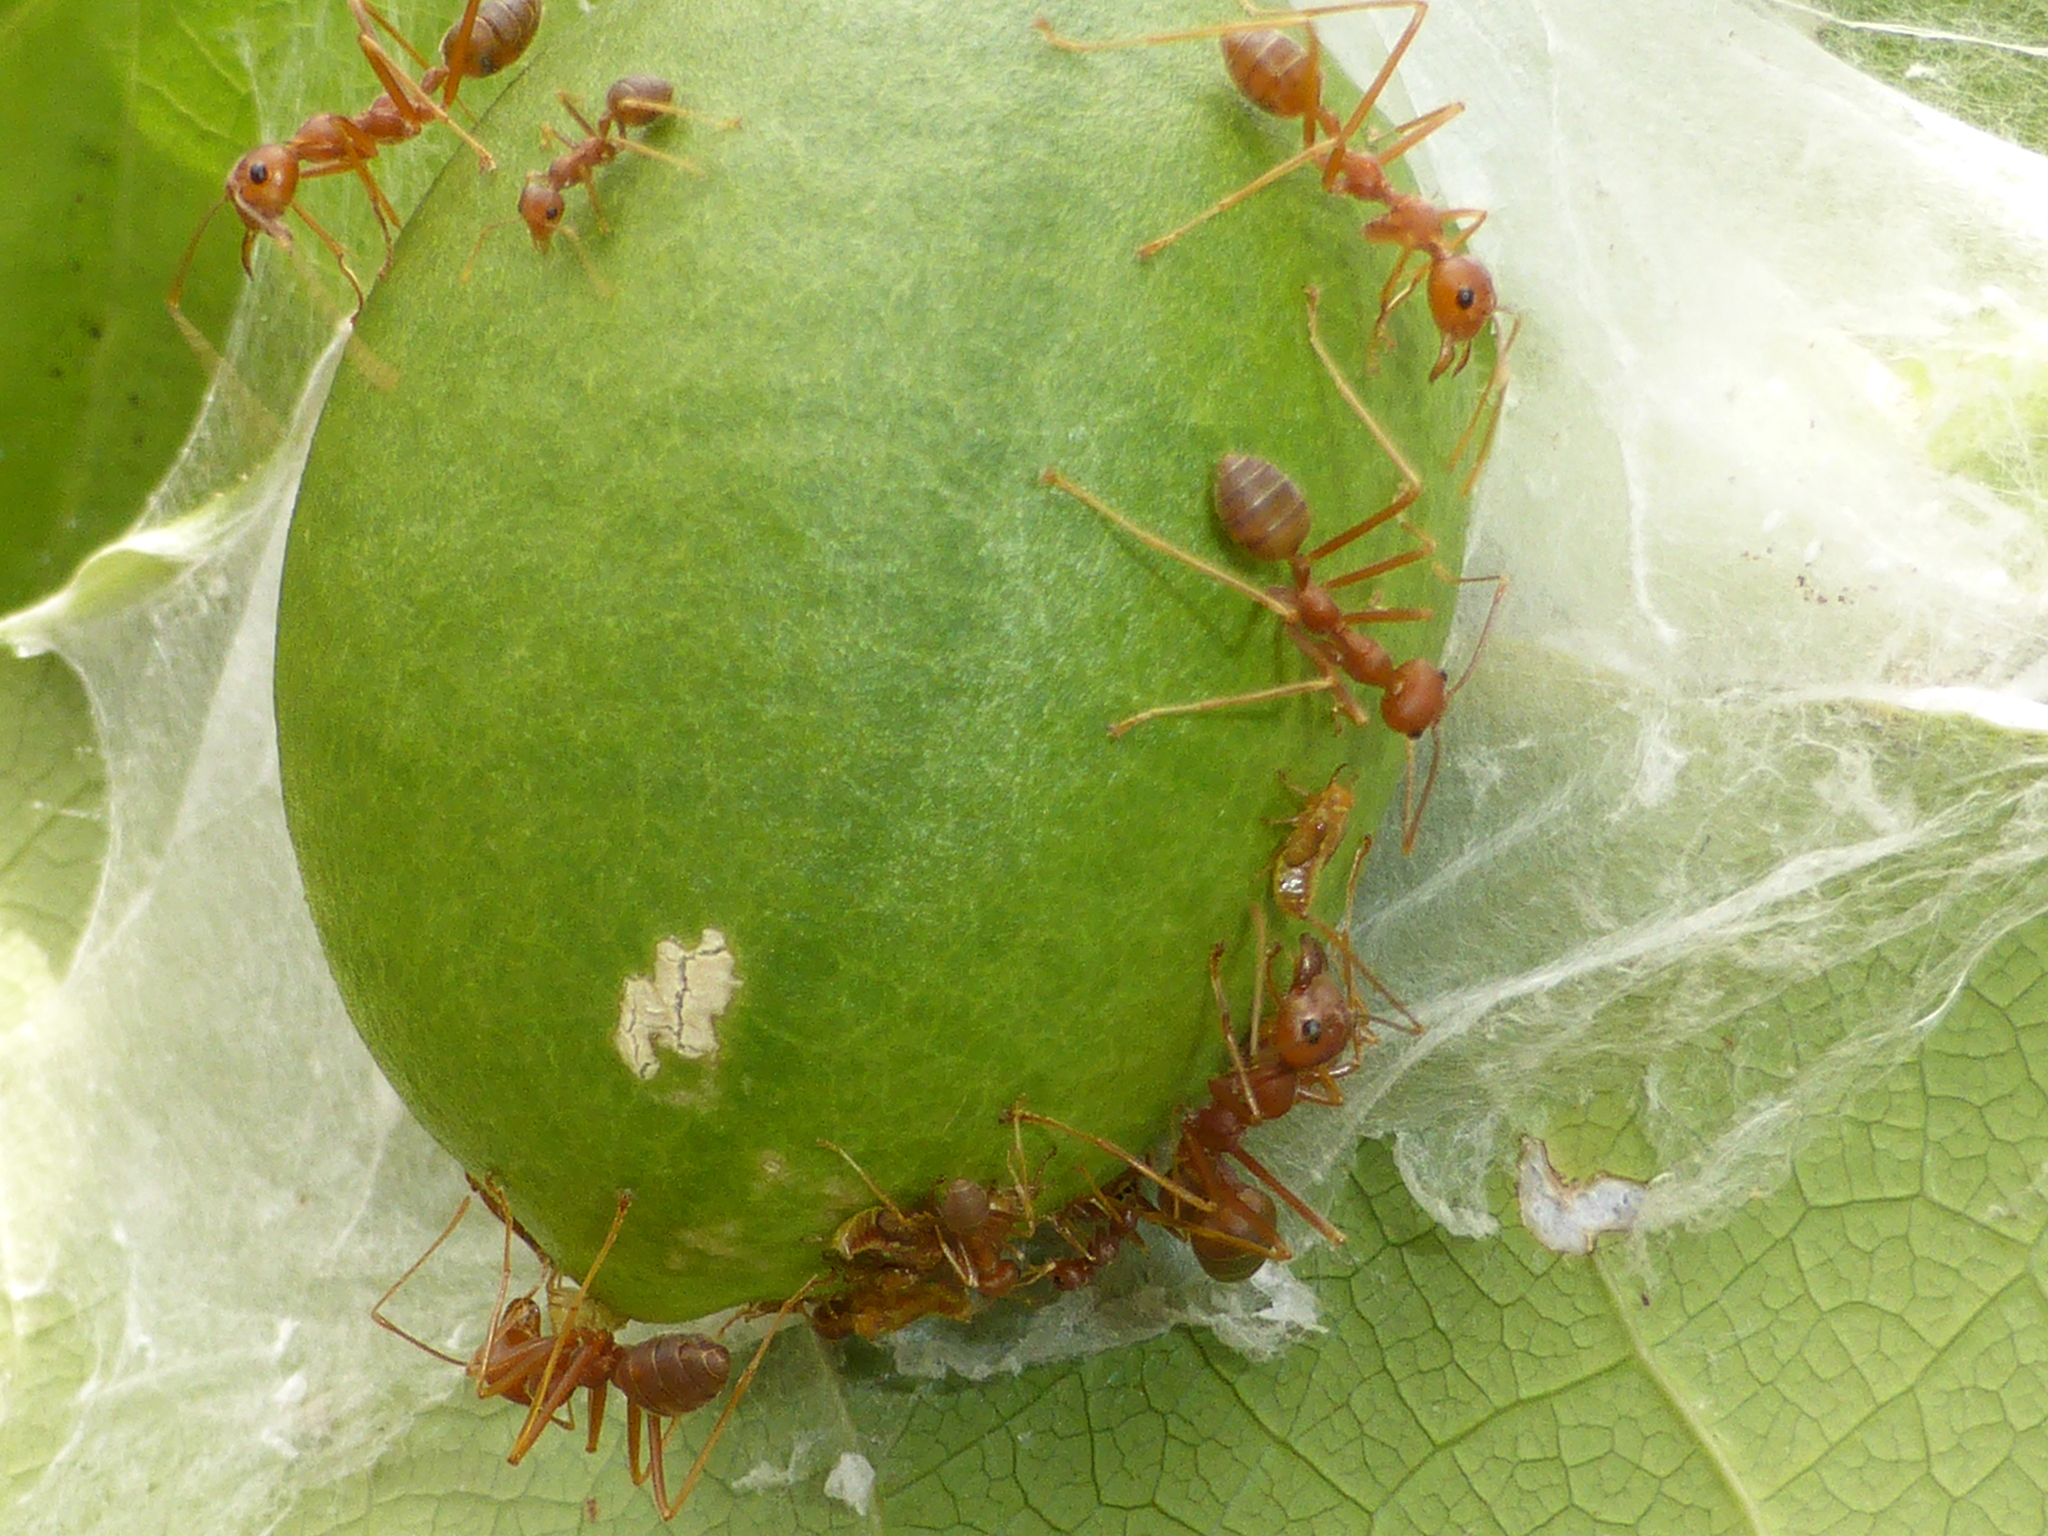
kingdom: Animalia
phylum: Arthropoda
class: Insecta
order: Hymenoptera
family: Formicidae
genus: Oecophylla
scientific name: Oecophylla smaragdina
